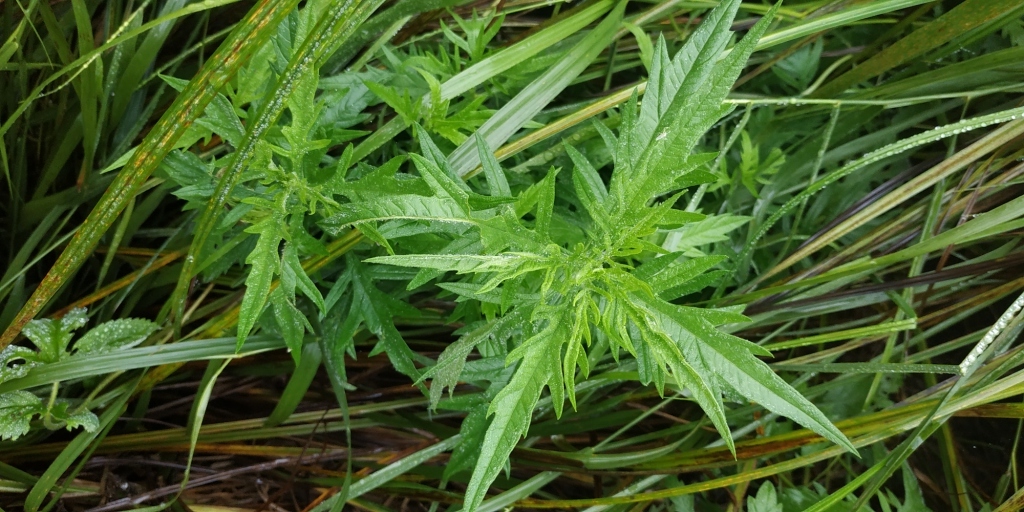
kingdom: Plantae
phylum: Tracheophyta
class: Magnoliopsida
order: Lamiales
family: Lamiaceae
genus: Lycopus
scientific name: Lycopus exaltatus
